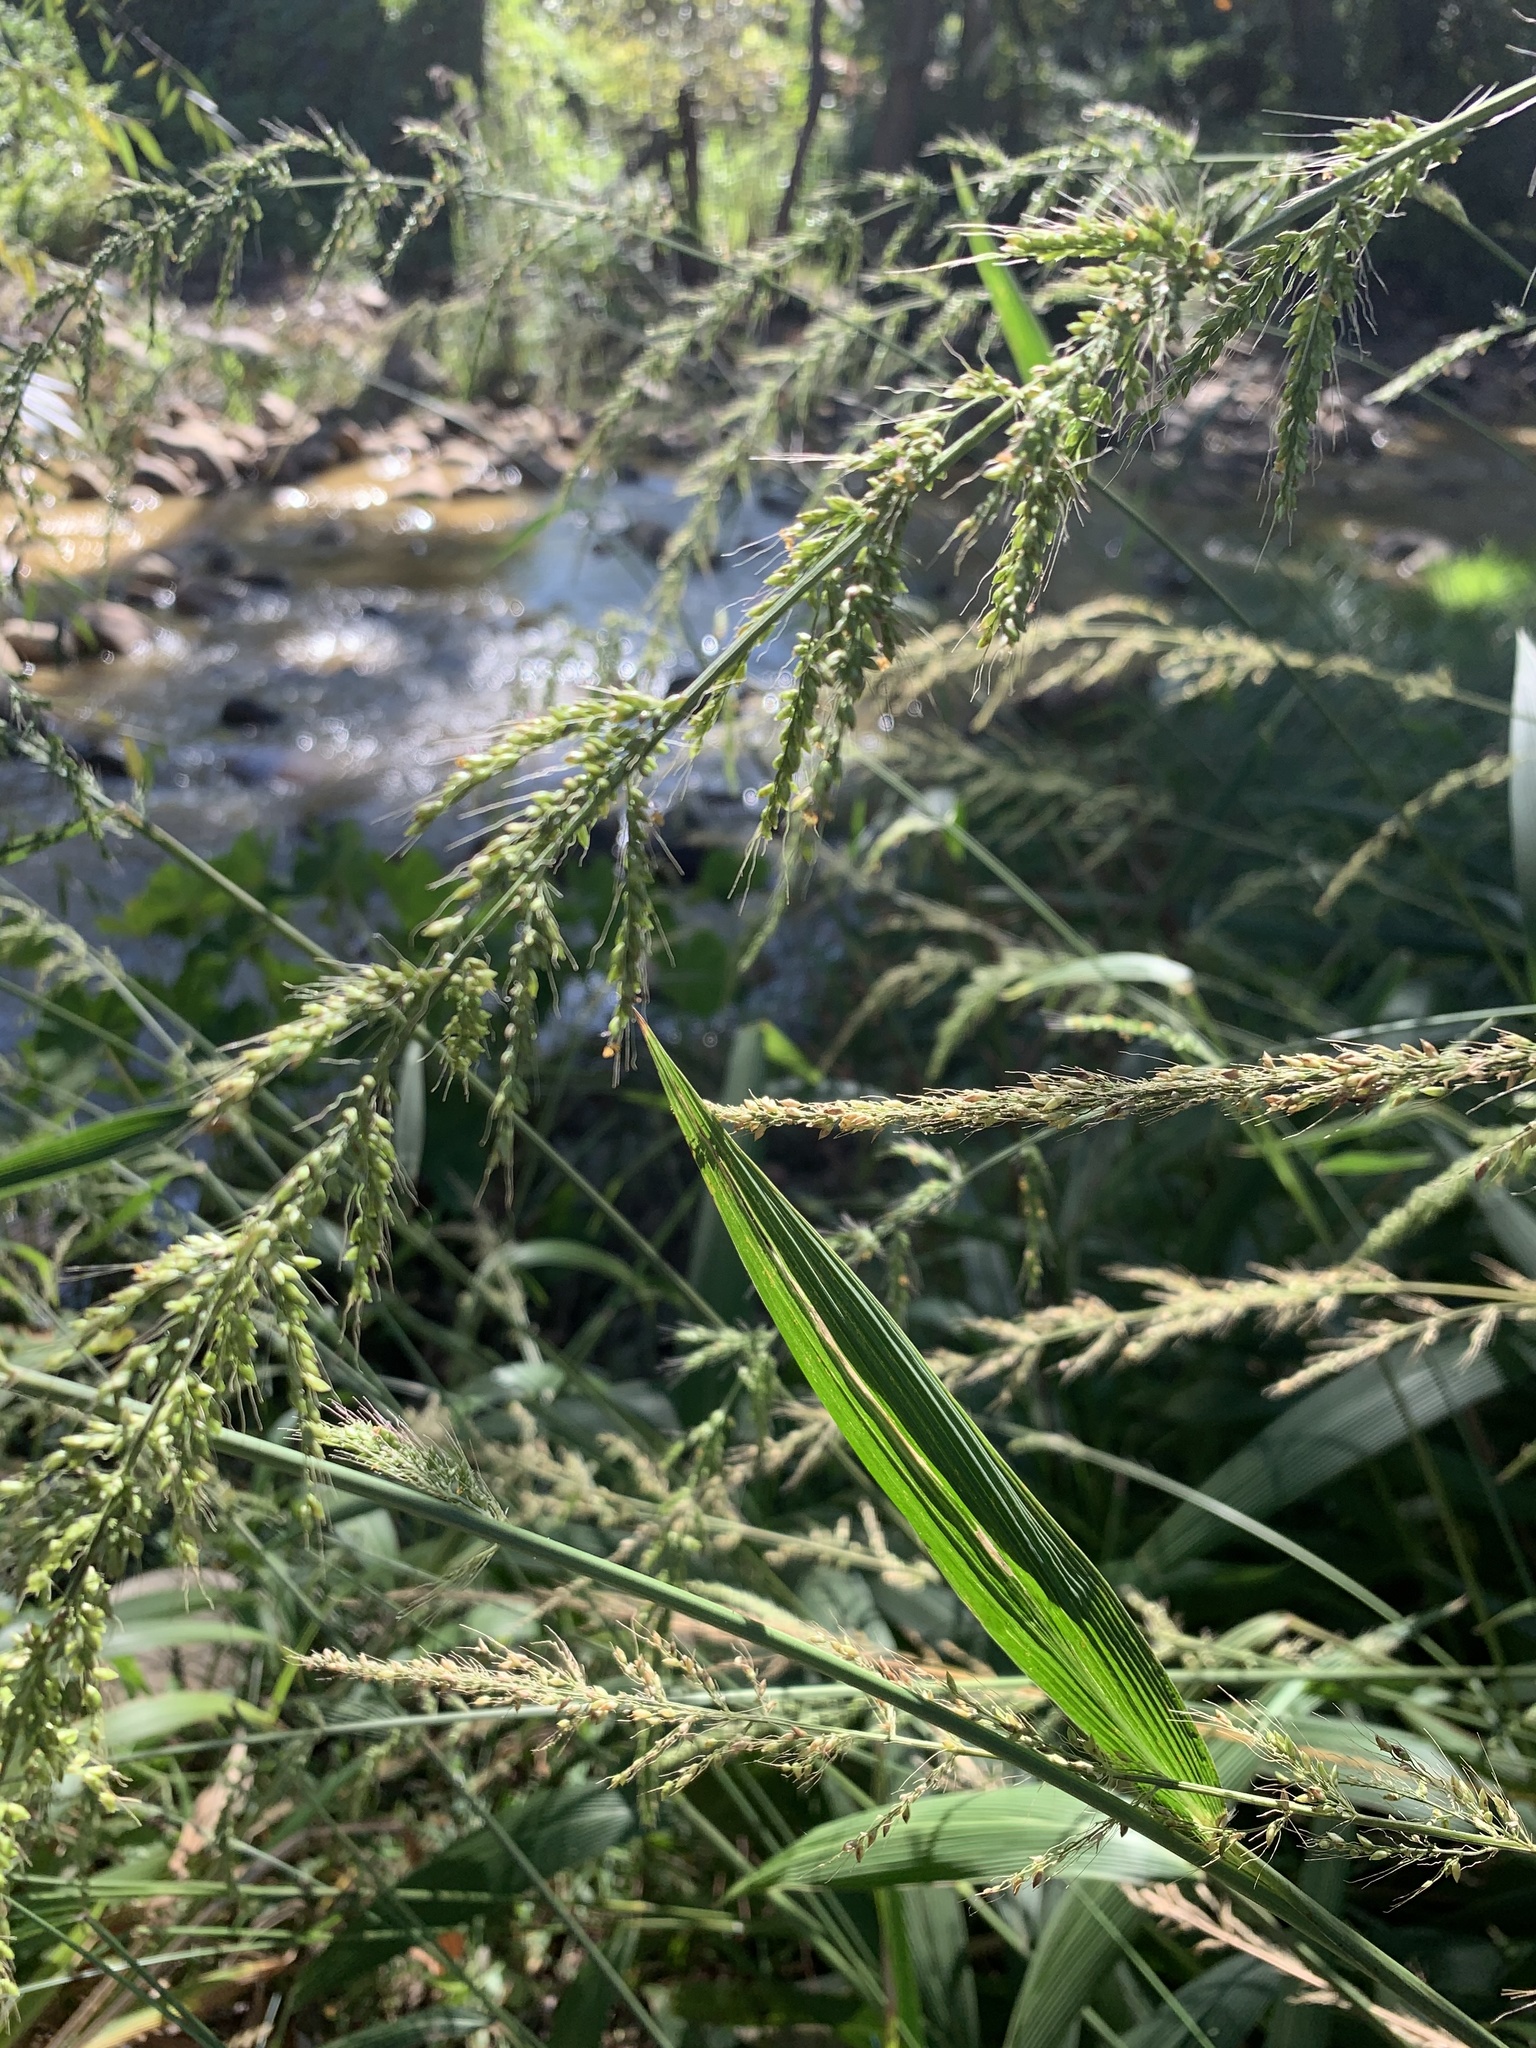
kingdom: Plantae
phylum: Tracheophyta
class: Liliopsida
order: Poales
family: Poaceae
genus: Setaria
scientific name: Setaria megaphylla
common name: Bigleaf bristlegrass
